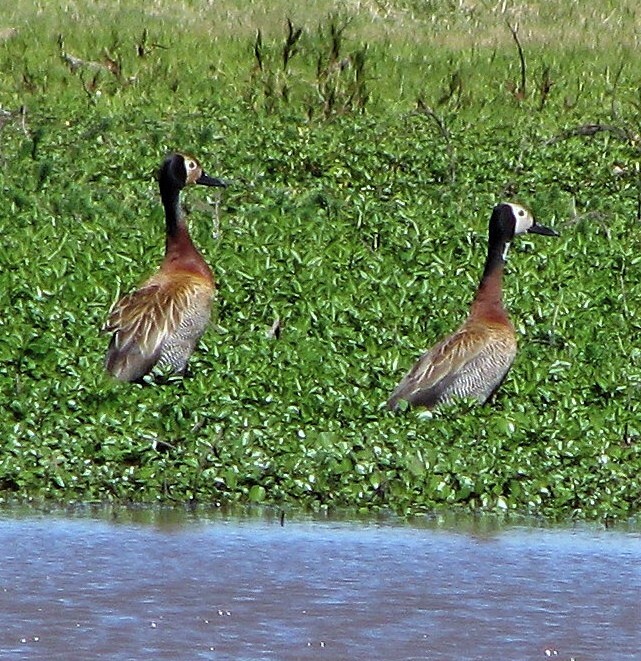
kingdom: Animalia
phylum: Chordata
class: Aves
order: Anseriformes
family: Anatidae
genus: Dendrocygna
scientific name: Dendrocygna viduata
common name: White-faced whistling duck
